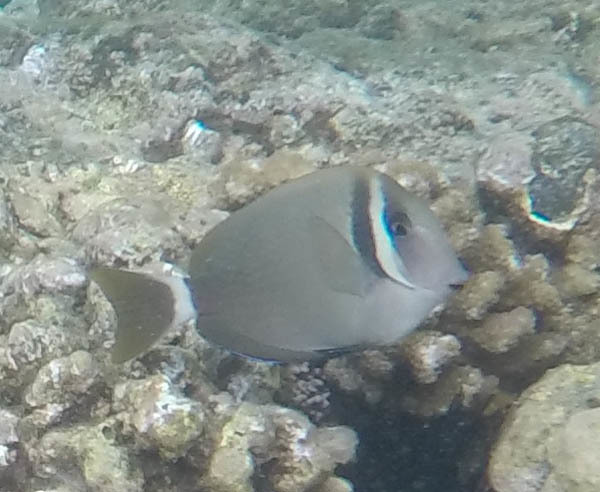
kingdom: Animalia
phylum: Chordata
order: Perciformes
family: Acanthuridae
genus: Acanthurus
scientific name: Acanthurus leucopareius
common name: Head-band surgeonfish
